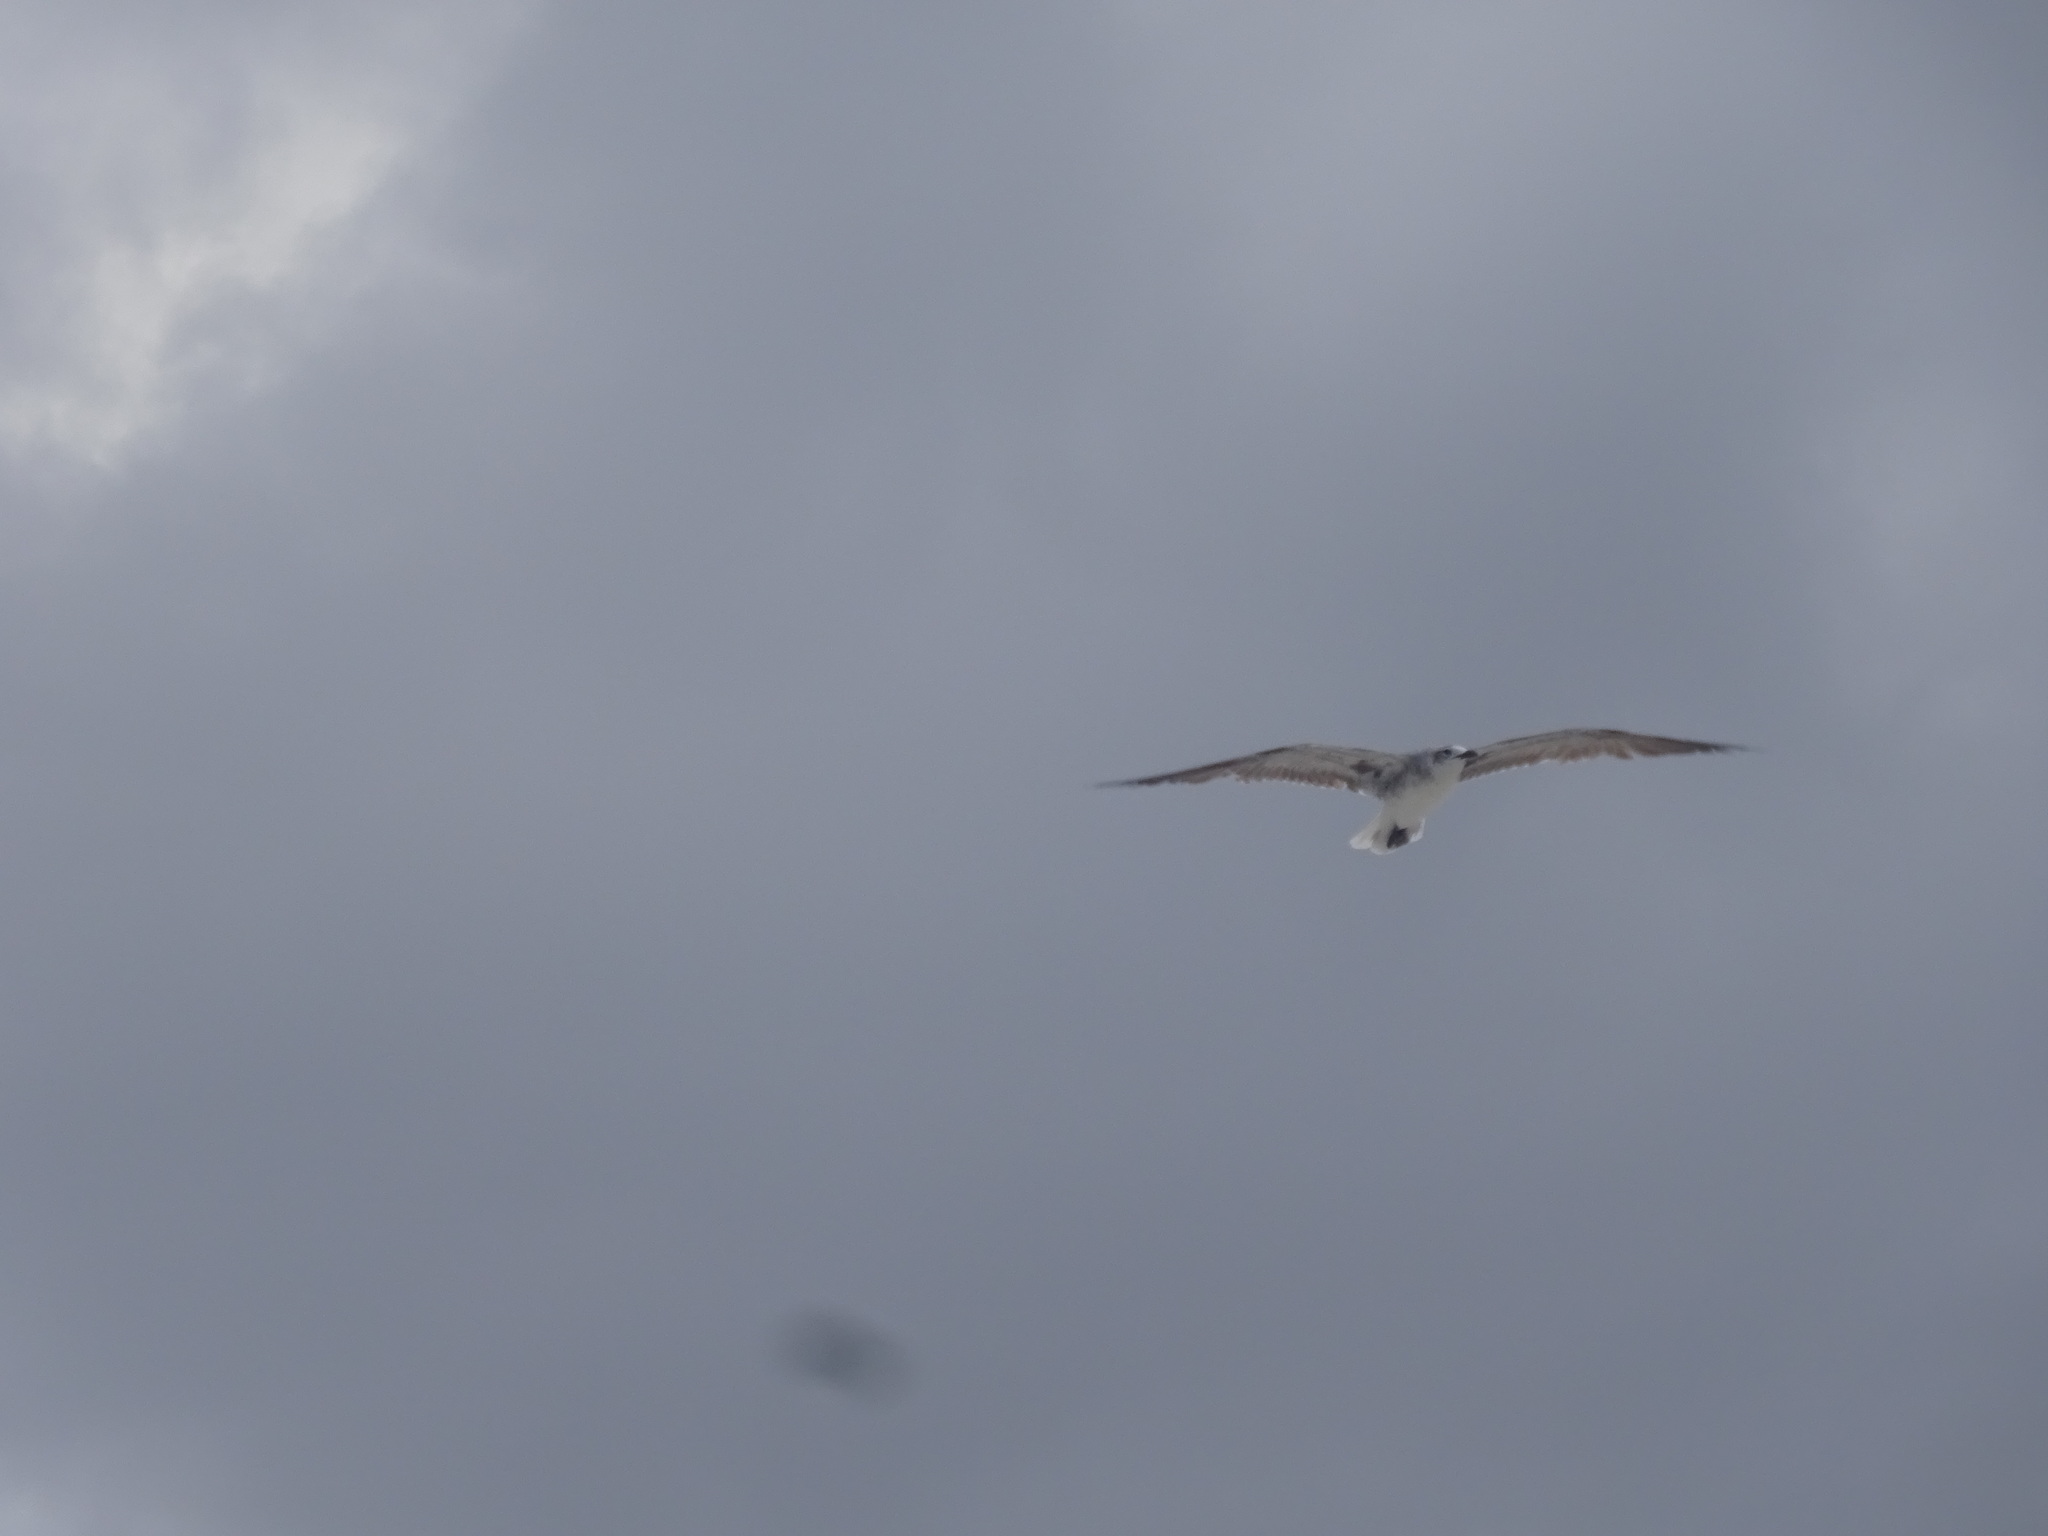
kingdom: Animalia
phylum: Chordata
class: Aves
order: Charadriiformes
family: Laridae
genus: Leucophaeus
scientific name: Leucophaeus atricilla
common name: Laughing gull
